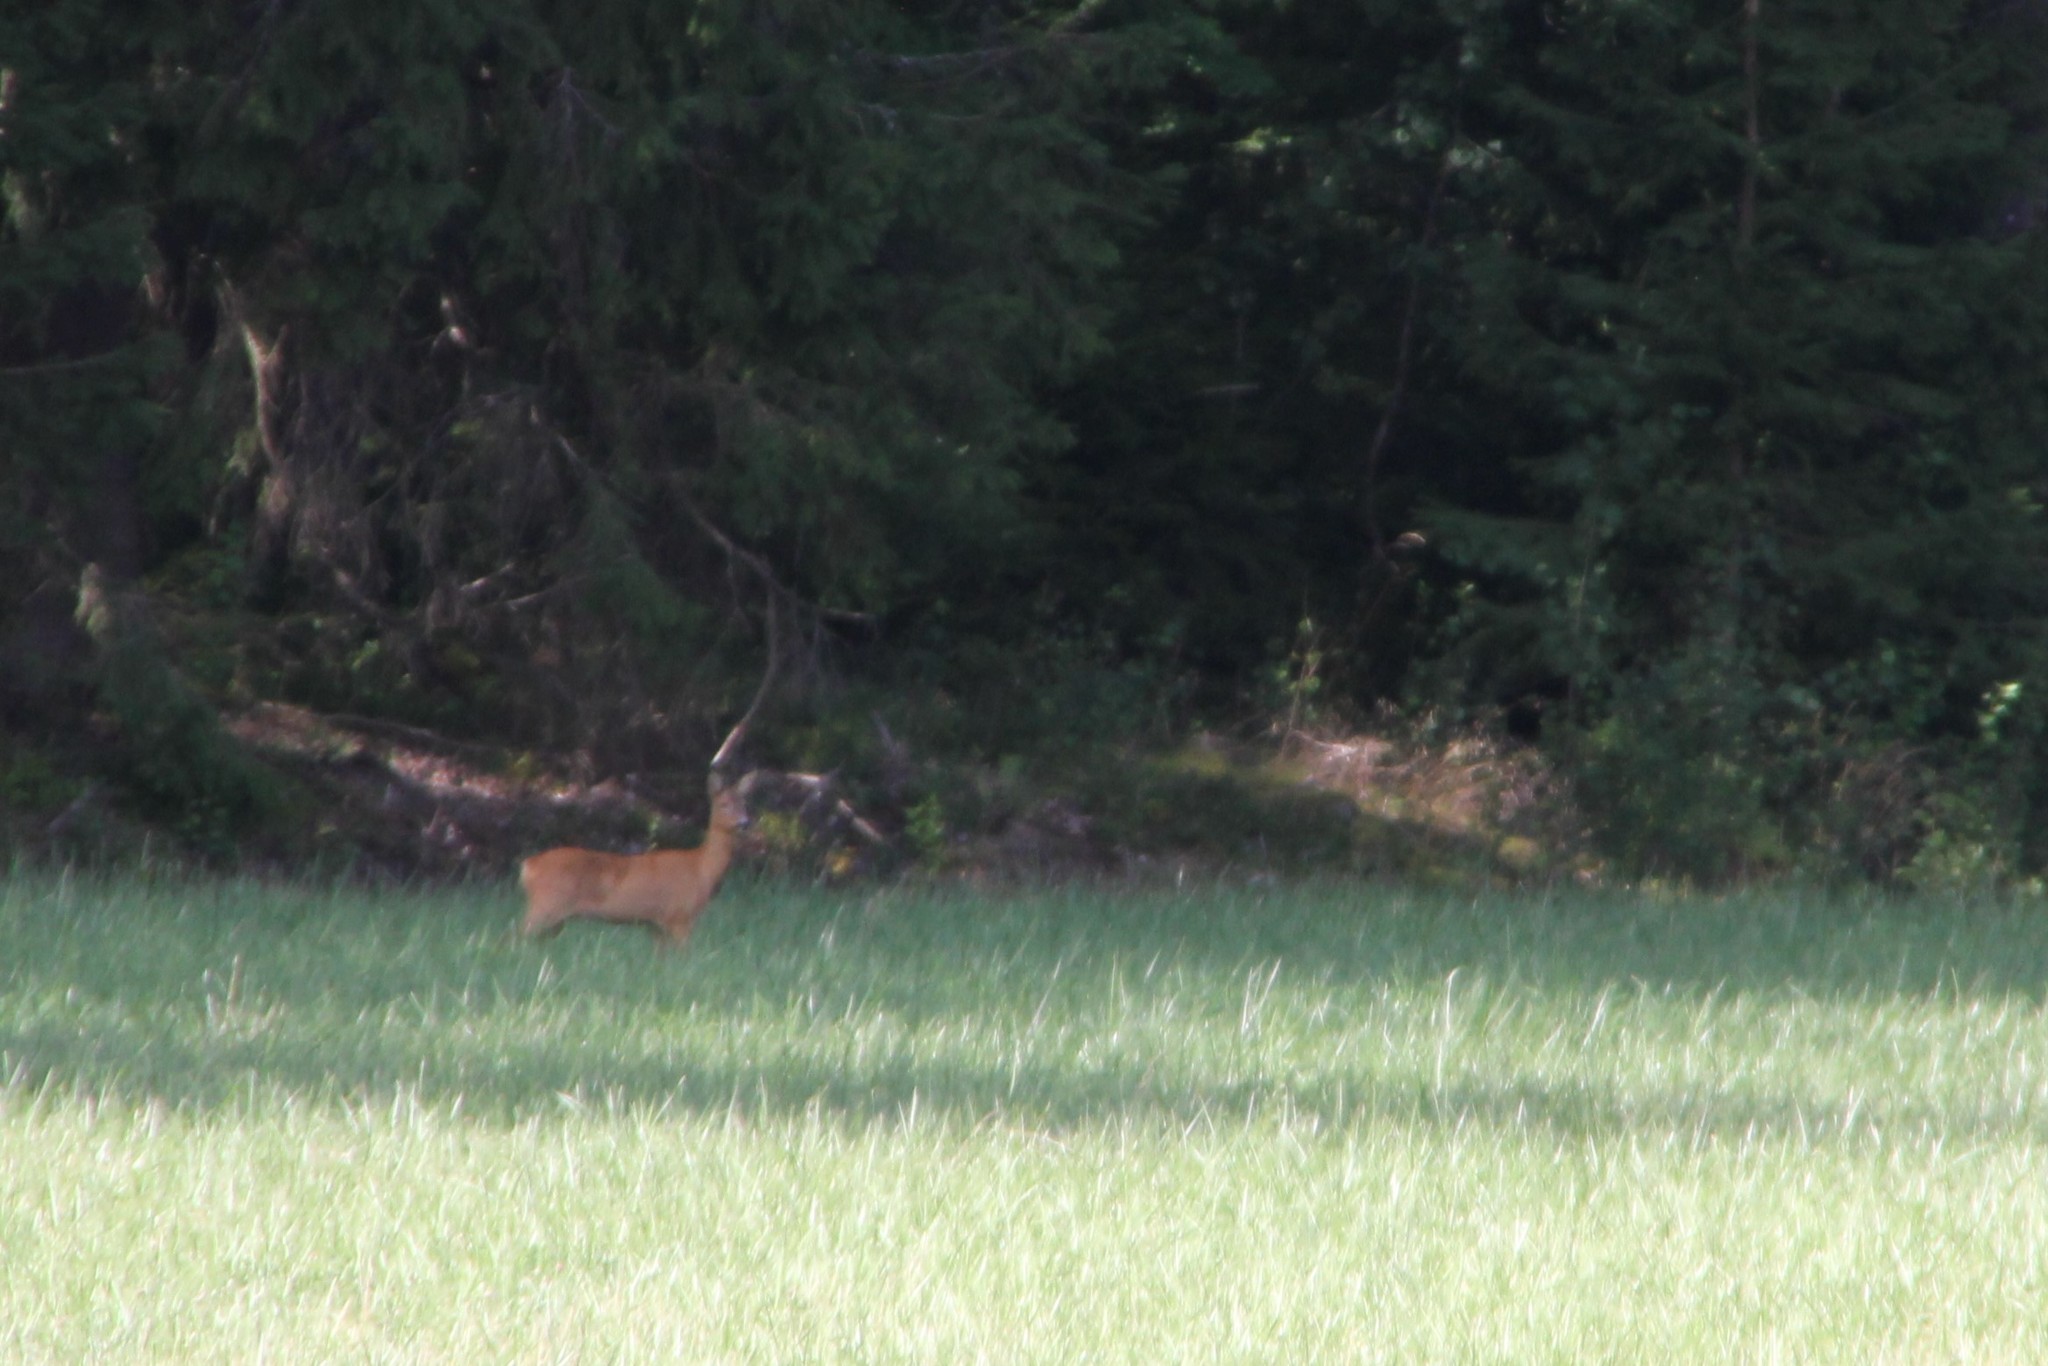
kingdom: Animalia
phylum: Chordata
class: Mammalia
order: Artiodactyla
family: Cervidae
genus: Capreolus
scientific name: Capreolus capreolus
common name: Western roe deer
